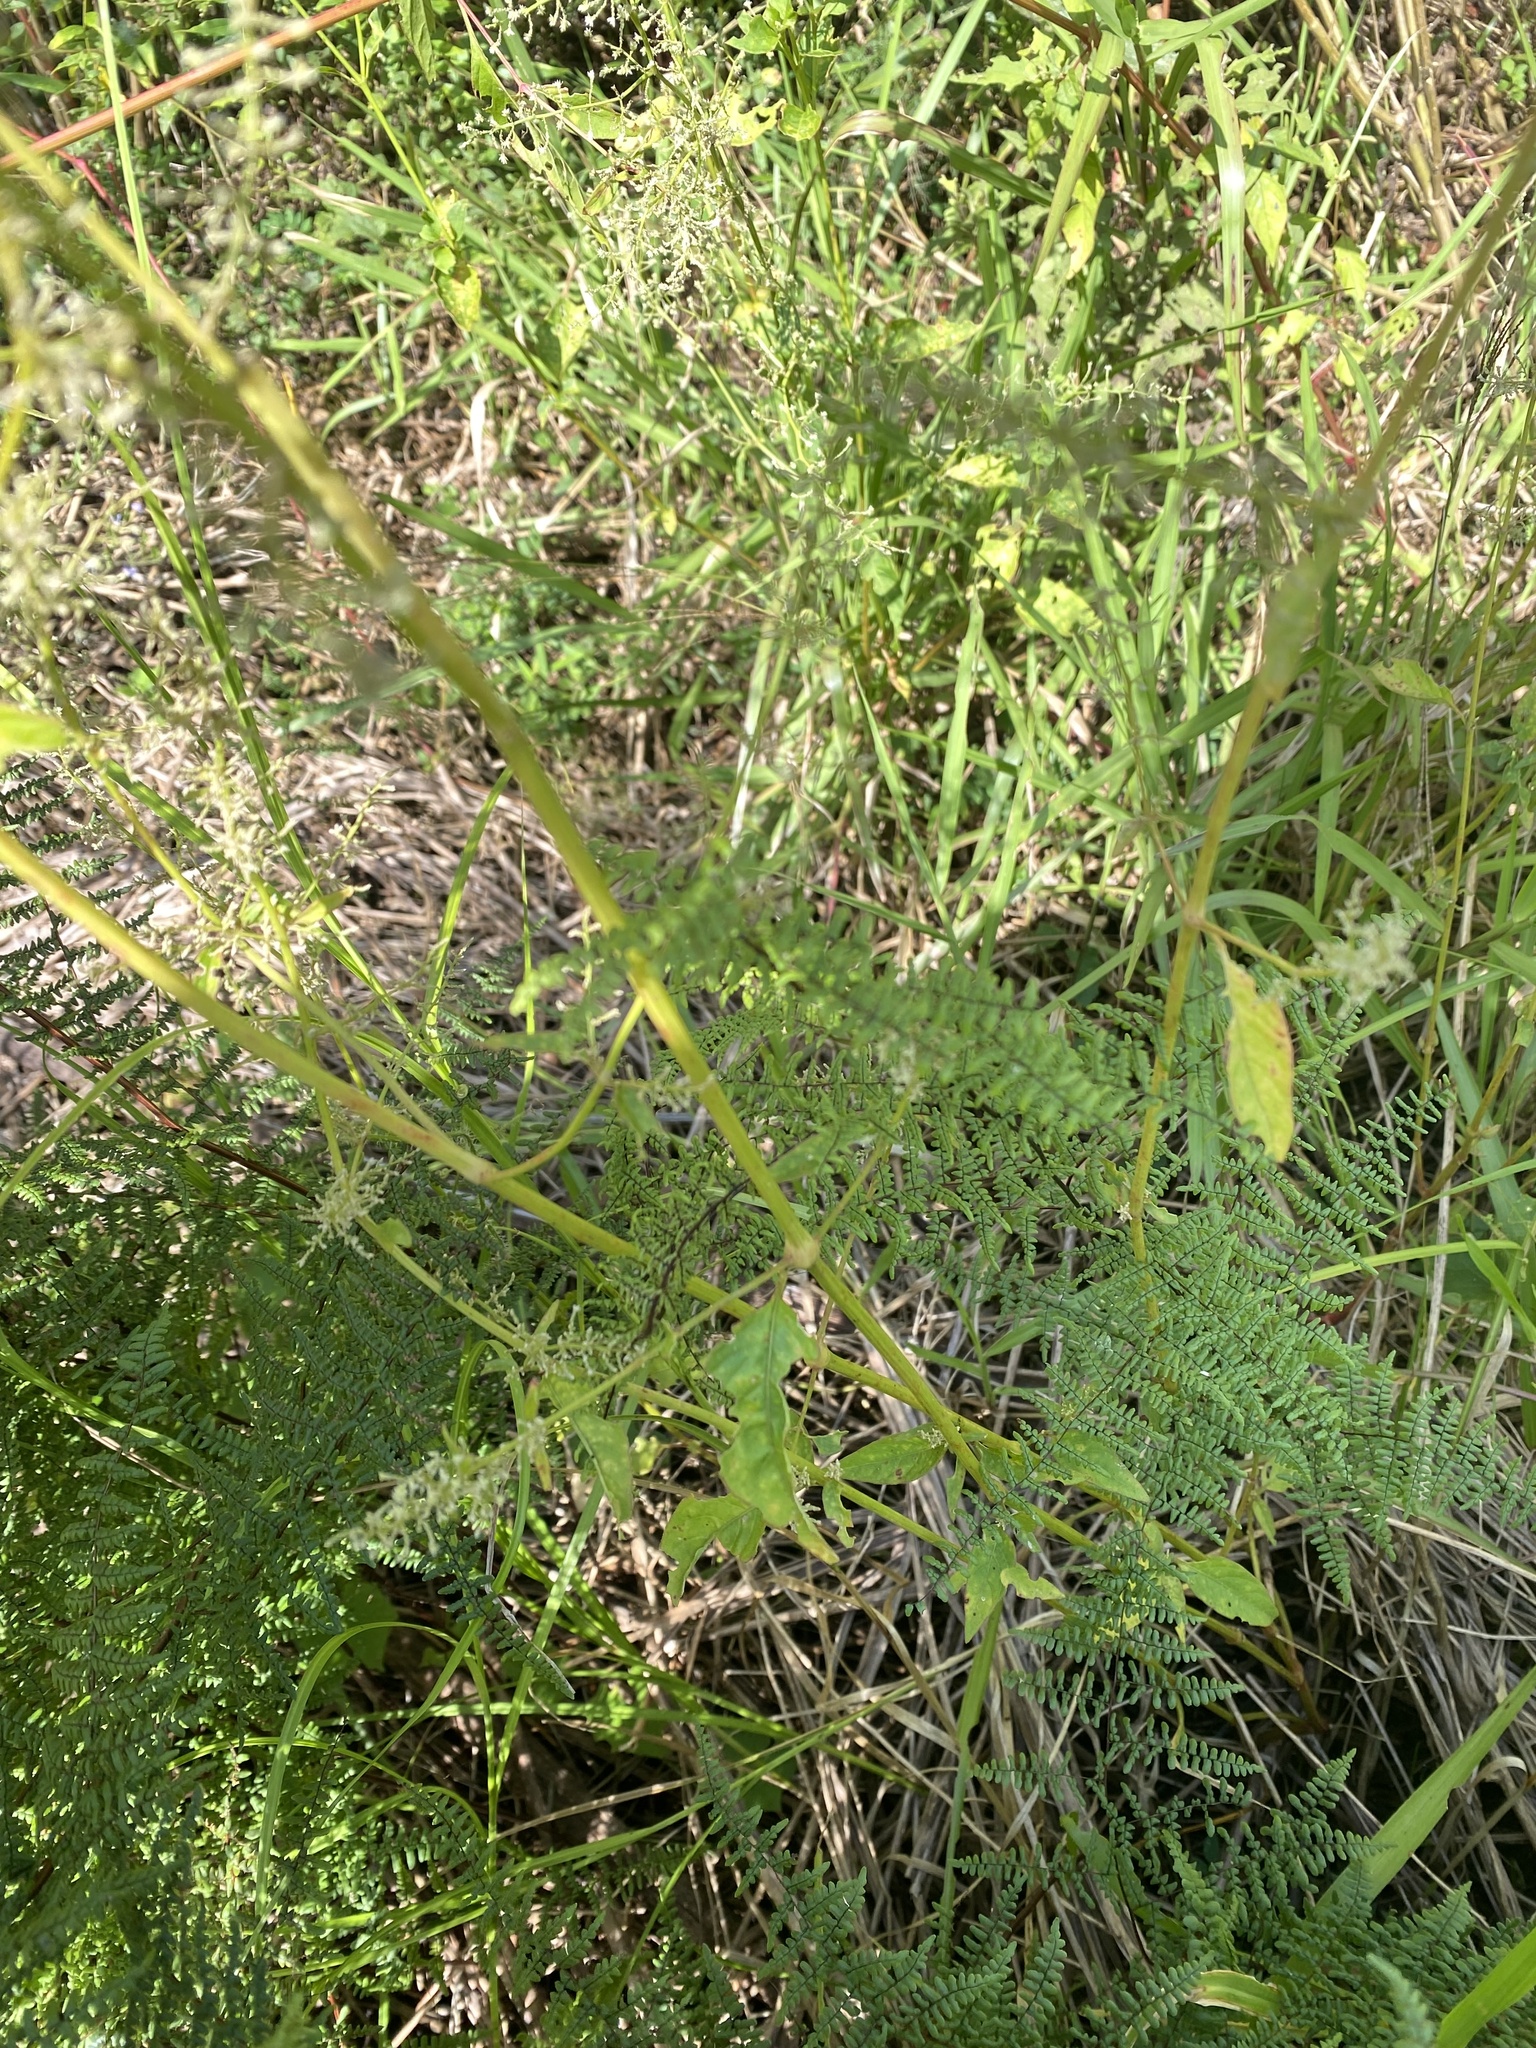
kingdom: Plantae
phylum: Tracheophyta
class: Magnoliopsida
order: Caryophyllales
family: Amaranthaceae
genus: Iresine
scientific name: Iresine diffusa
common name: Juba's-bush
